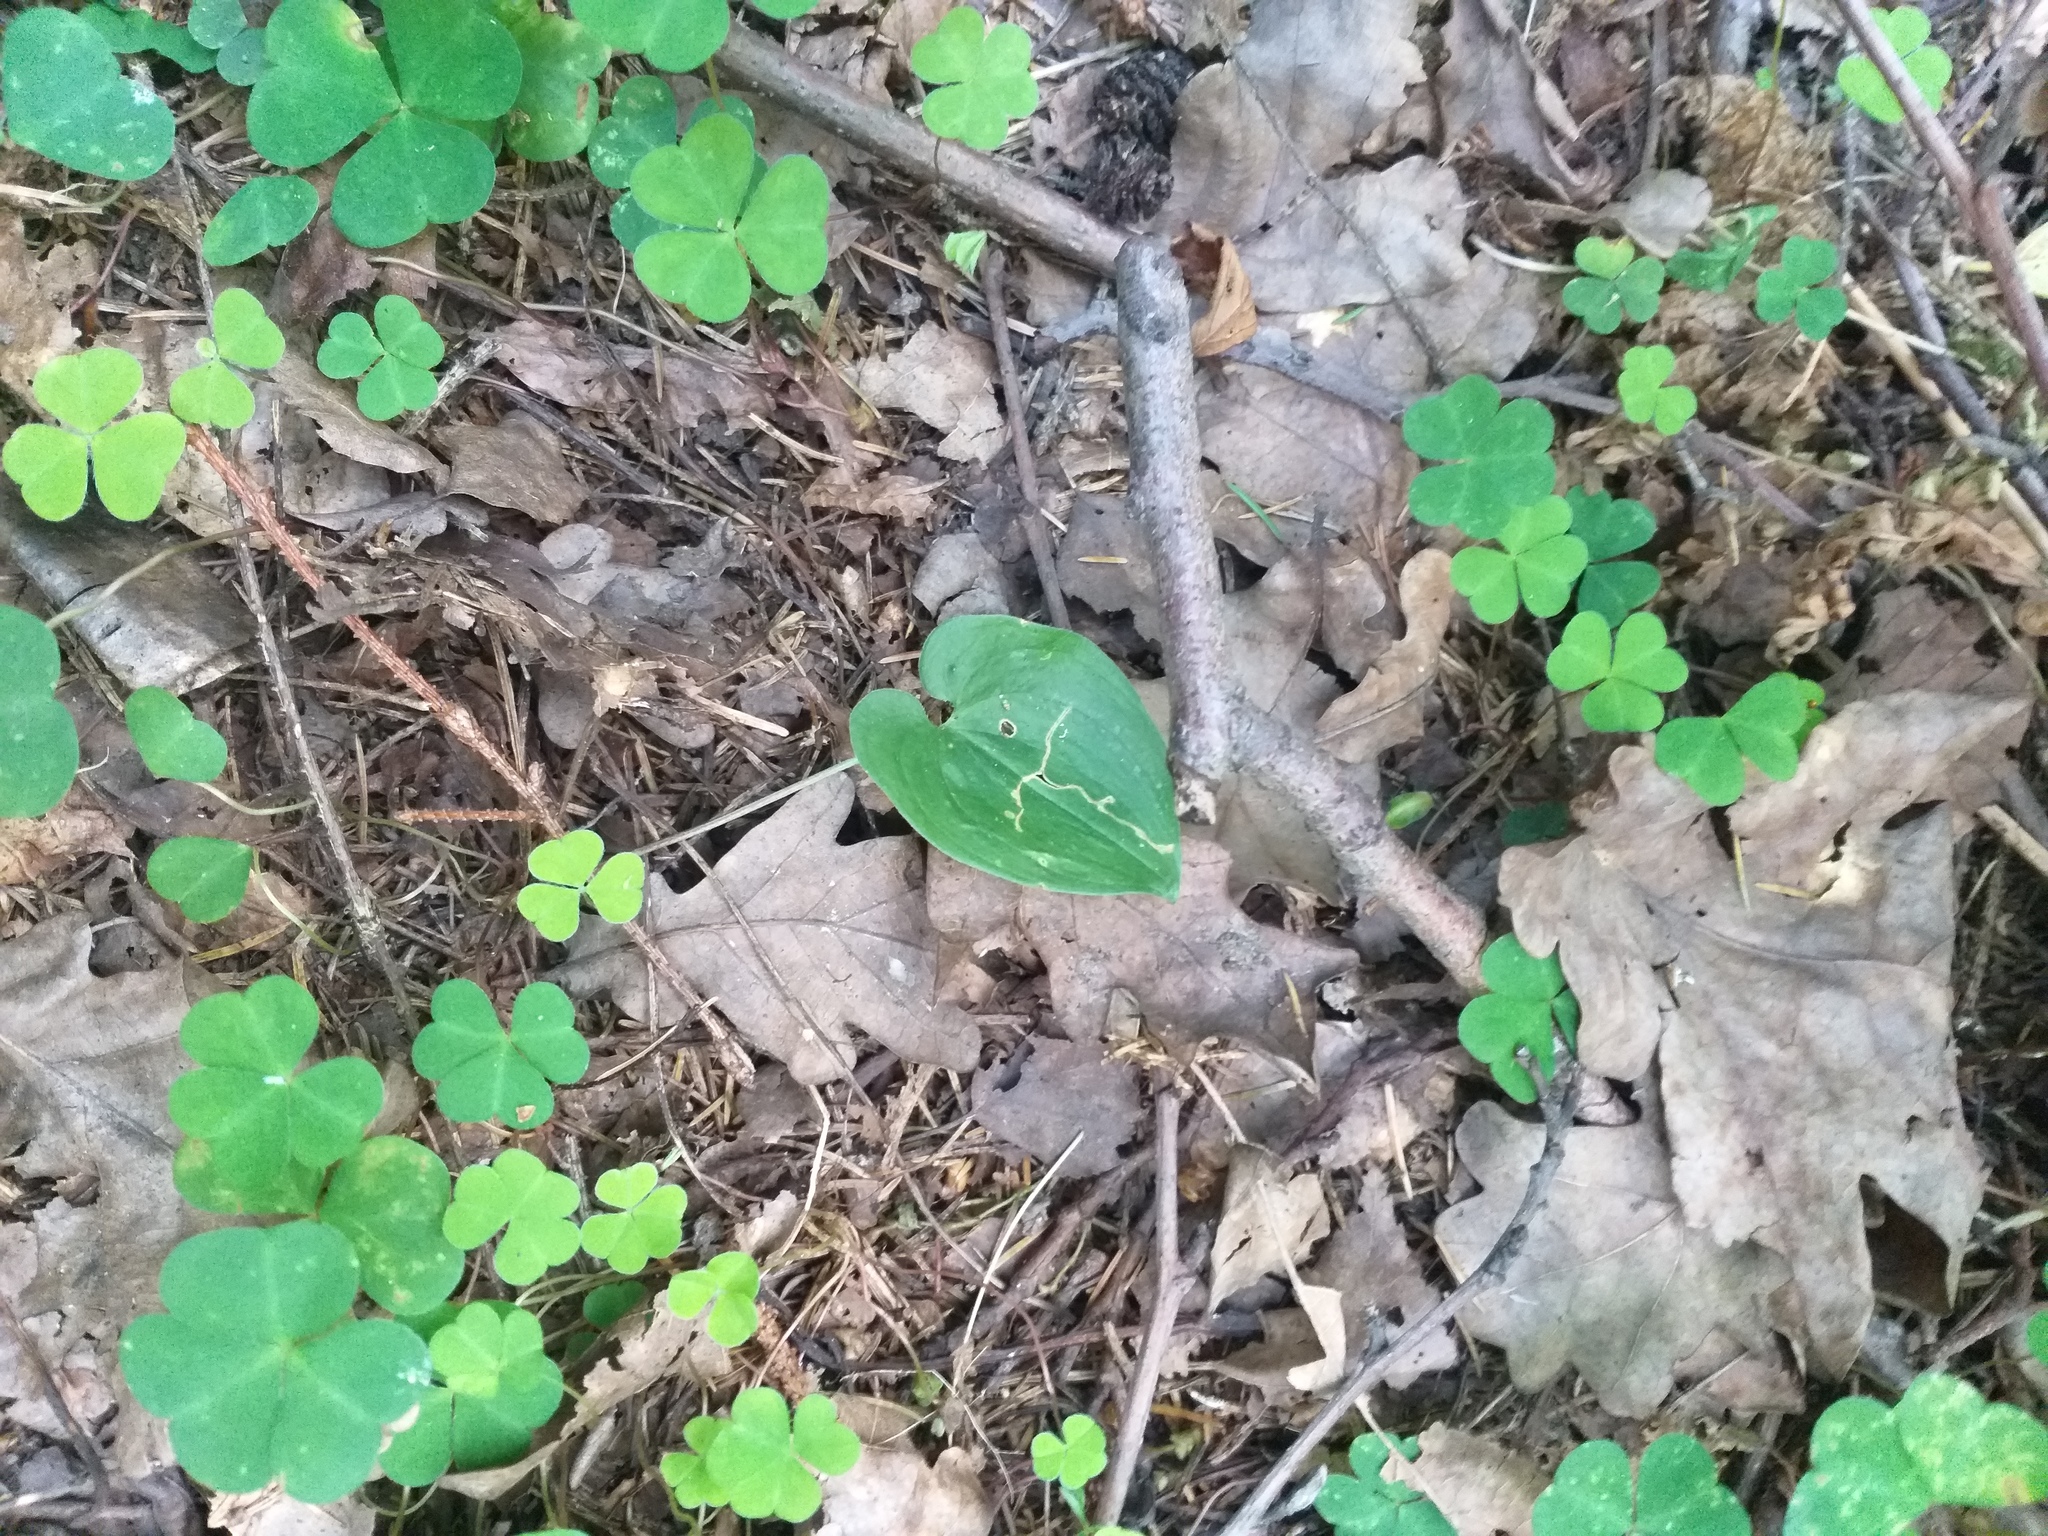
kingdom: Plantae
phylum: Tracheophyta
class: Liliopsida
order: Asparagales
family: Asparagaceae
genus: Maianthemum
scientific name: Maianthemum bifolium
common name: May lily
